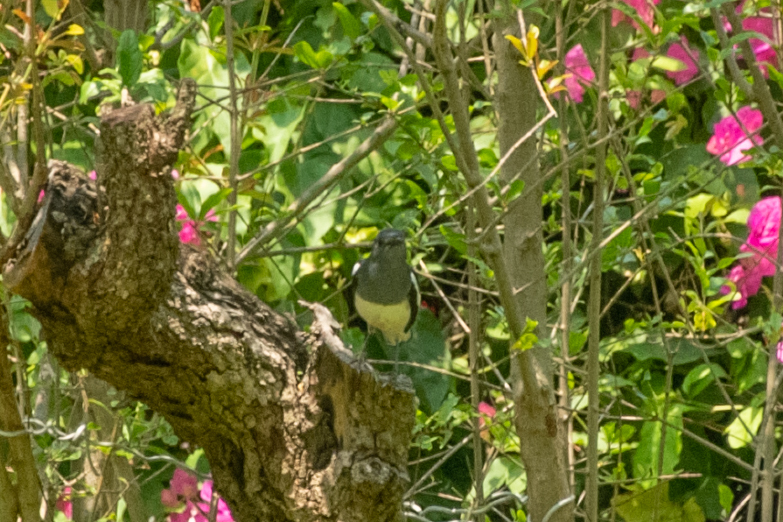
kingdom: Animalia
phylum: Chordata
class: Aves
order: Passeriformes
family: Muscicapidae
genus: Copsychus
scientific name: Copsychus saularis
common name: Oriental magpie-robin
